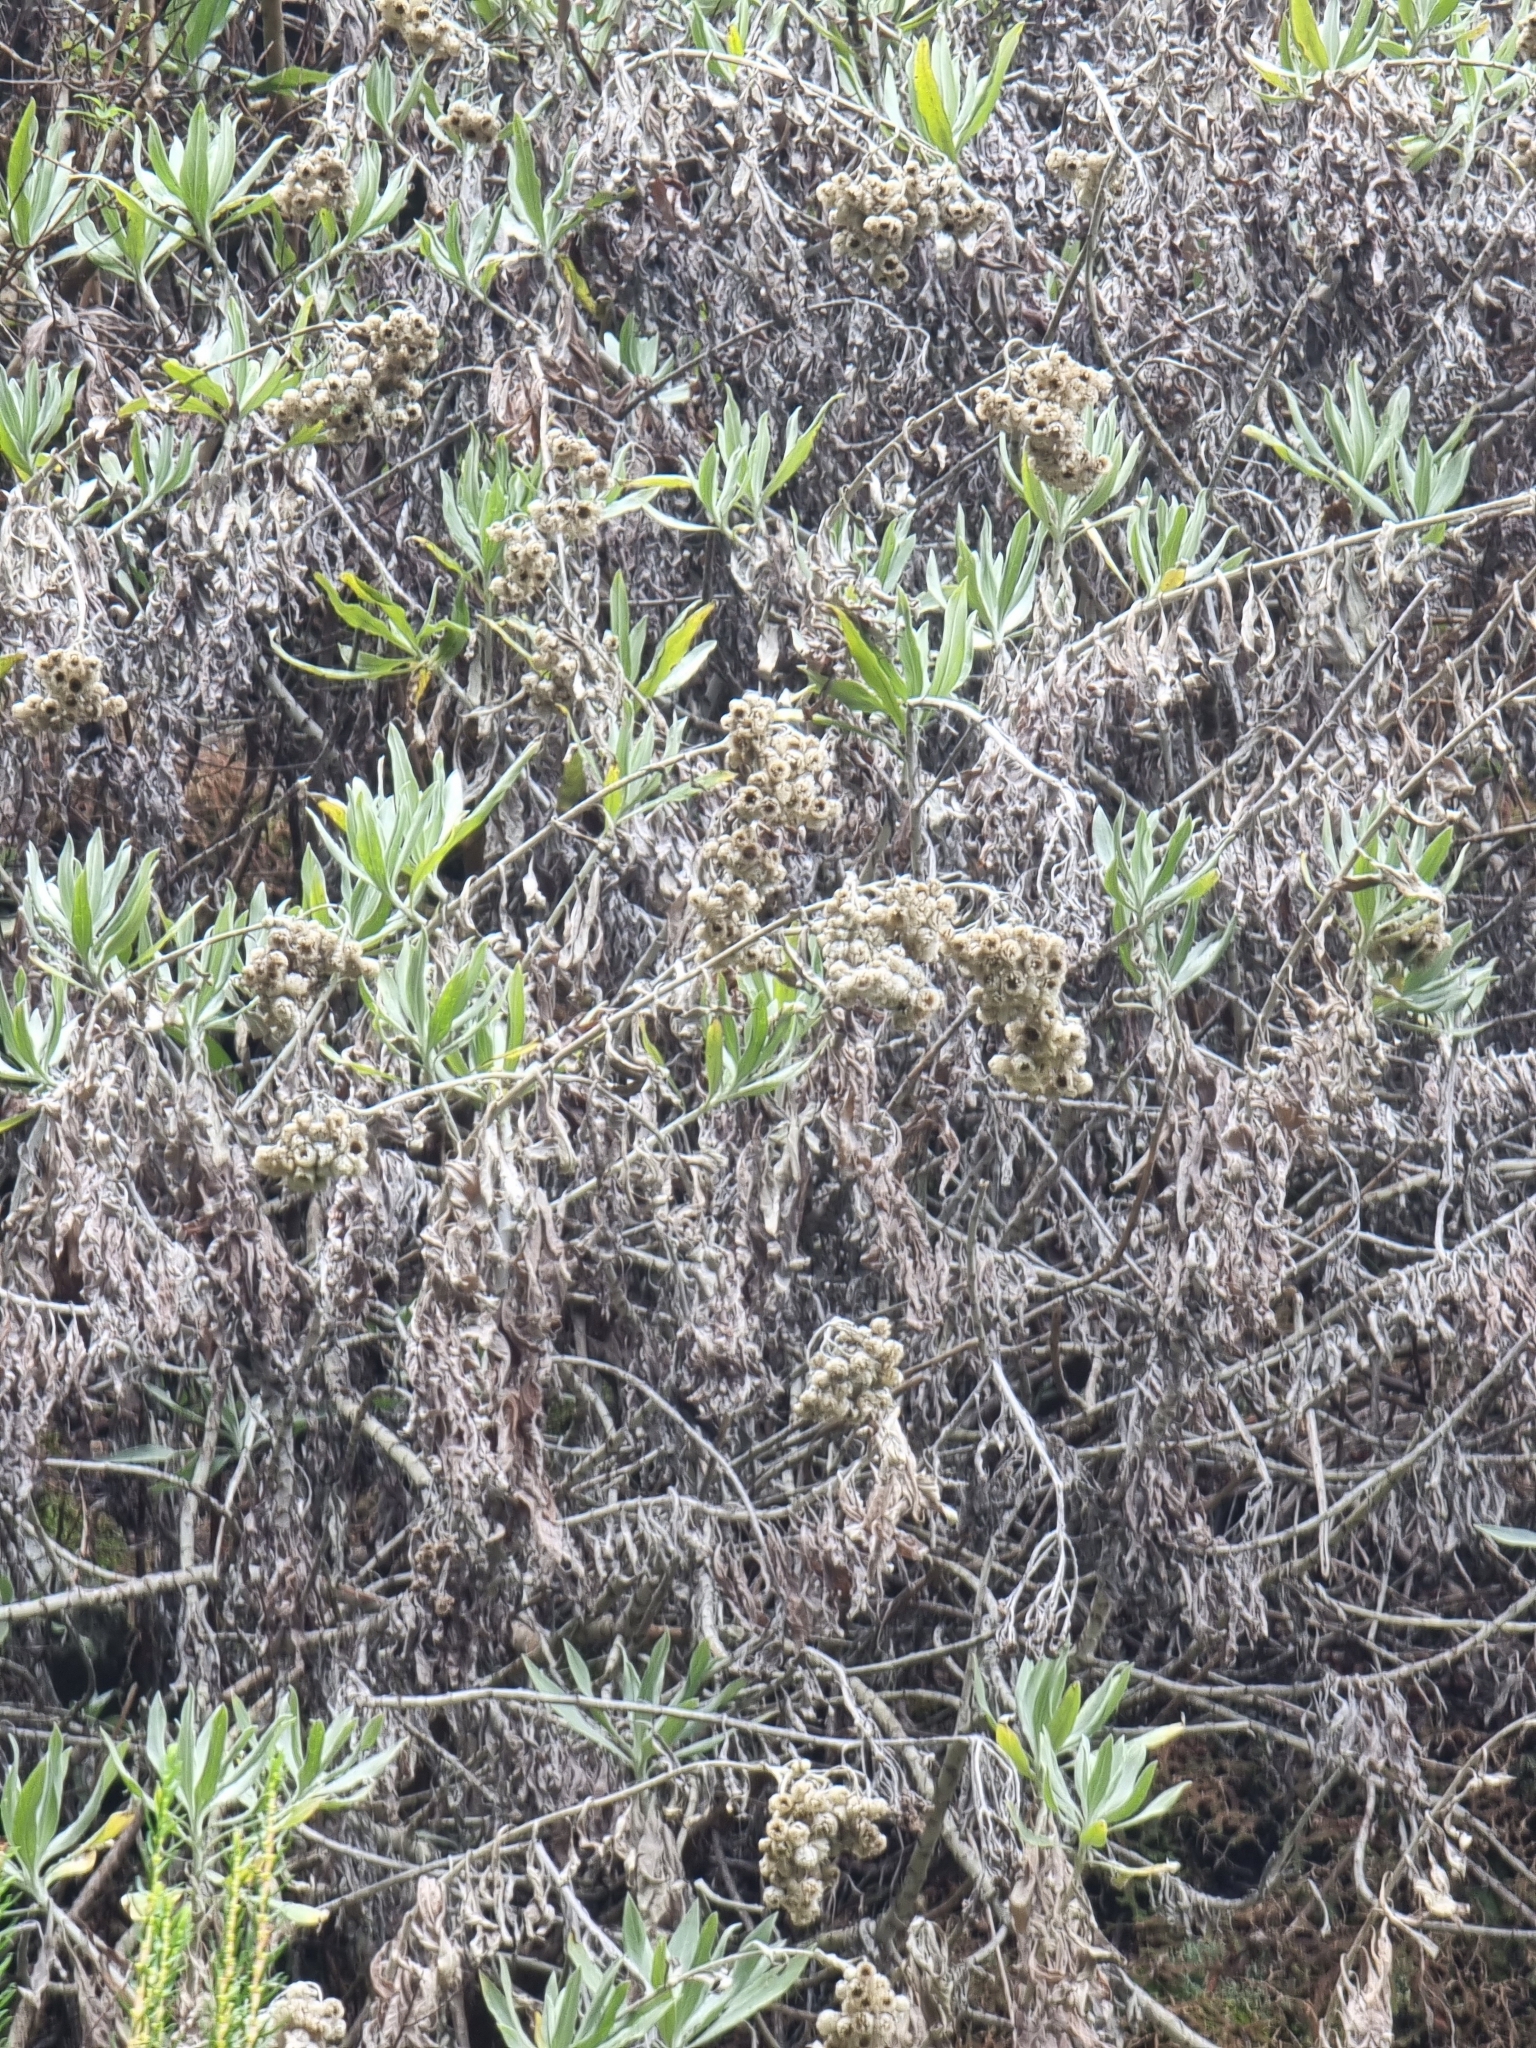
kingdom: Plantae
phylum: Tracheophyta
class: Magnoliopsida
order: Asterales
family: Asteraceae
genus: Helichrysum
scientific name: Helichrysum melaleucum
